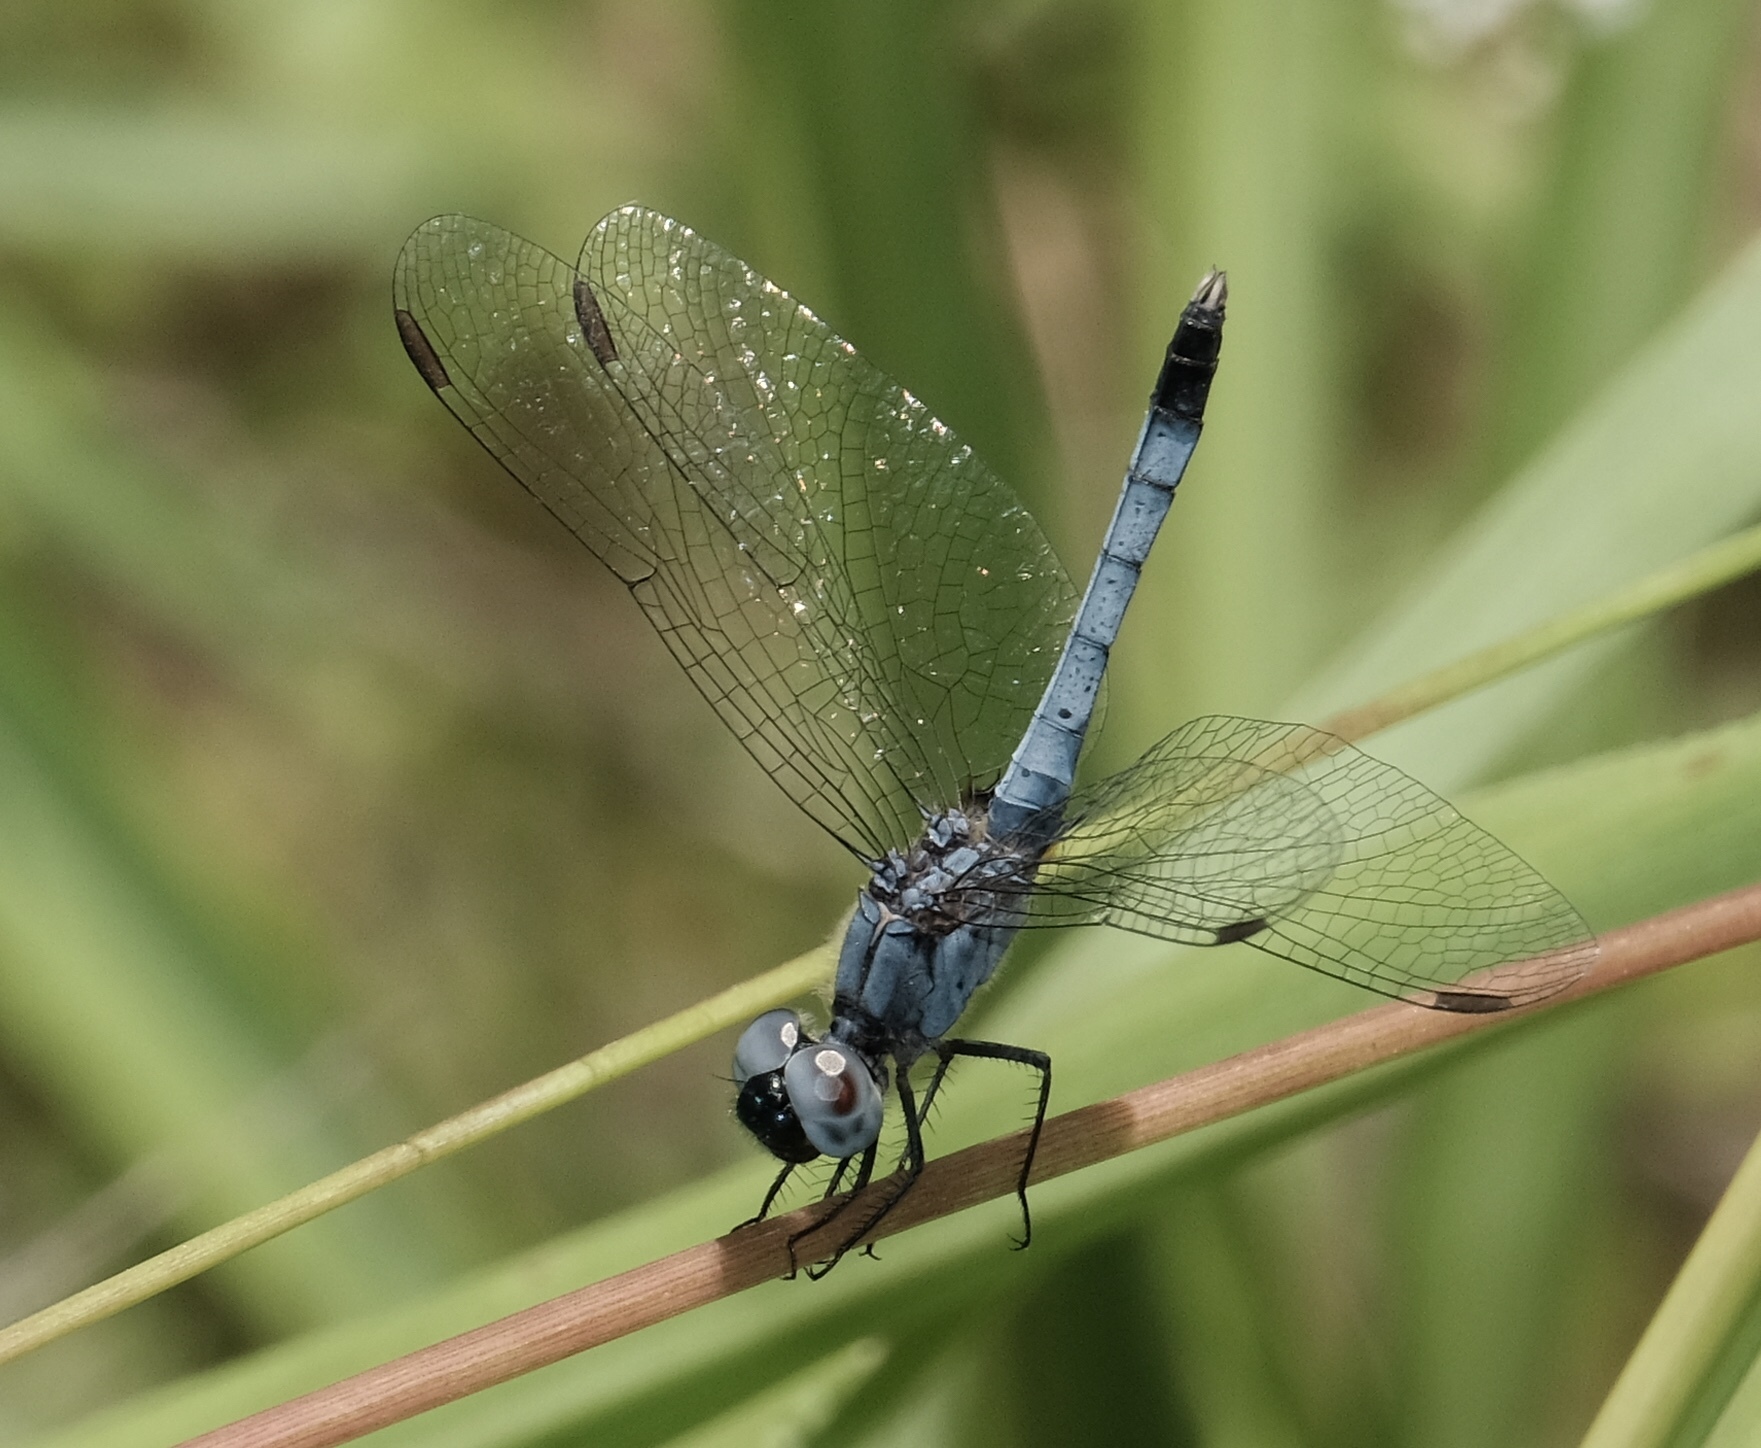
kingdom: Animalia
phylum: Arthropoda
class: Insecta
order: Odonata
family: Libellulidae
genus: Erythrodiplax
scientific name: Erythrodiplax minuscula
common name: Little blue dragonlet
